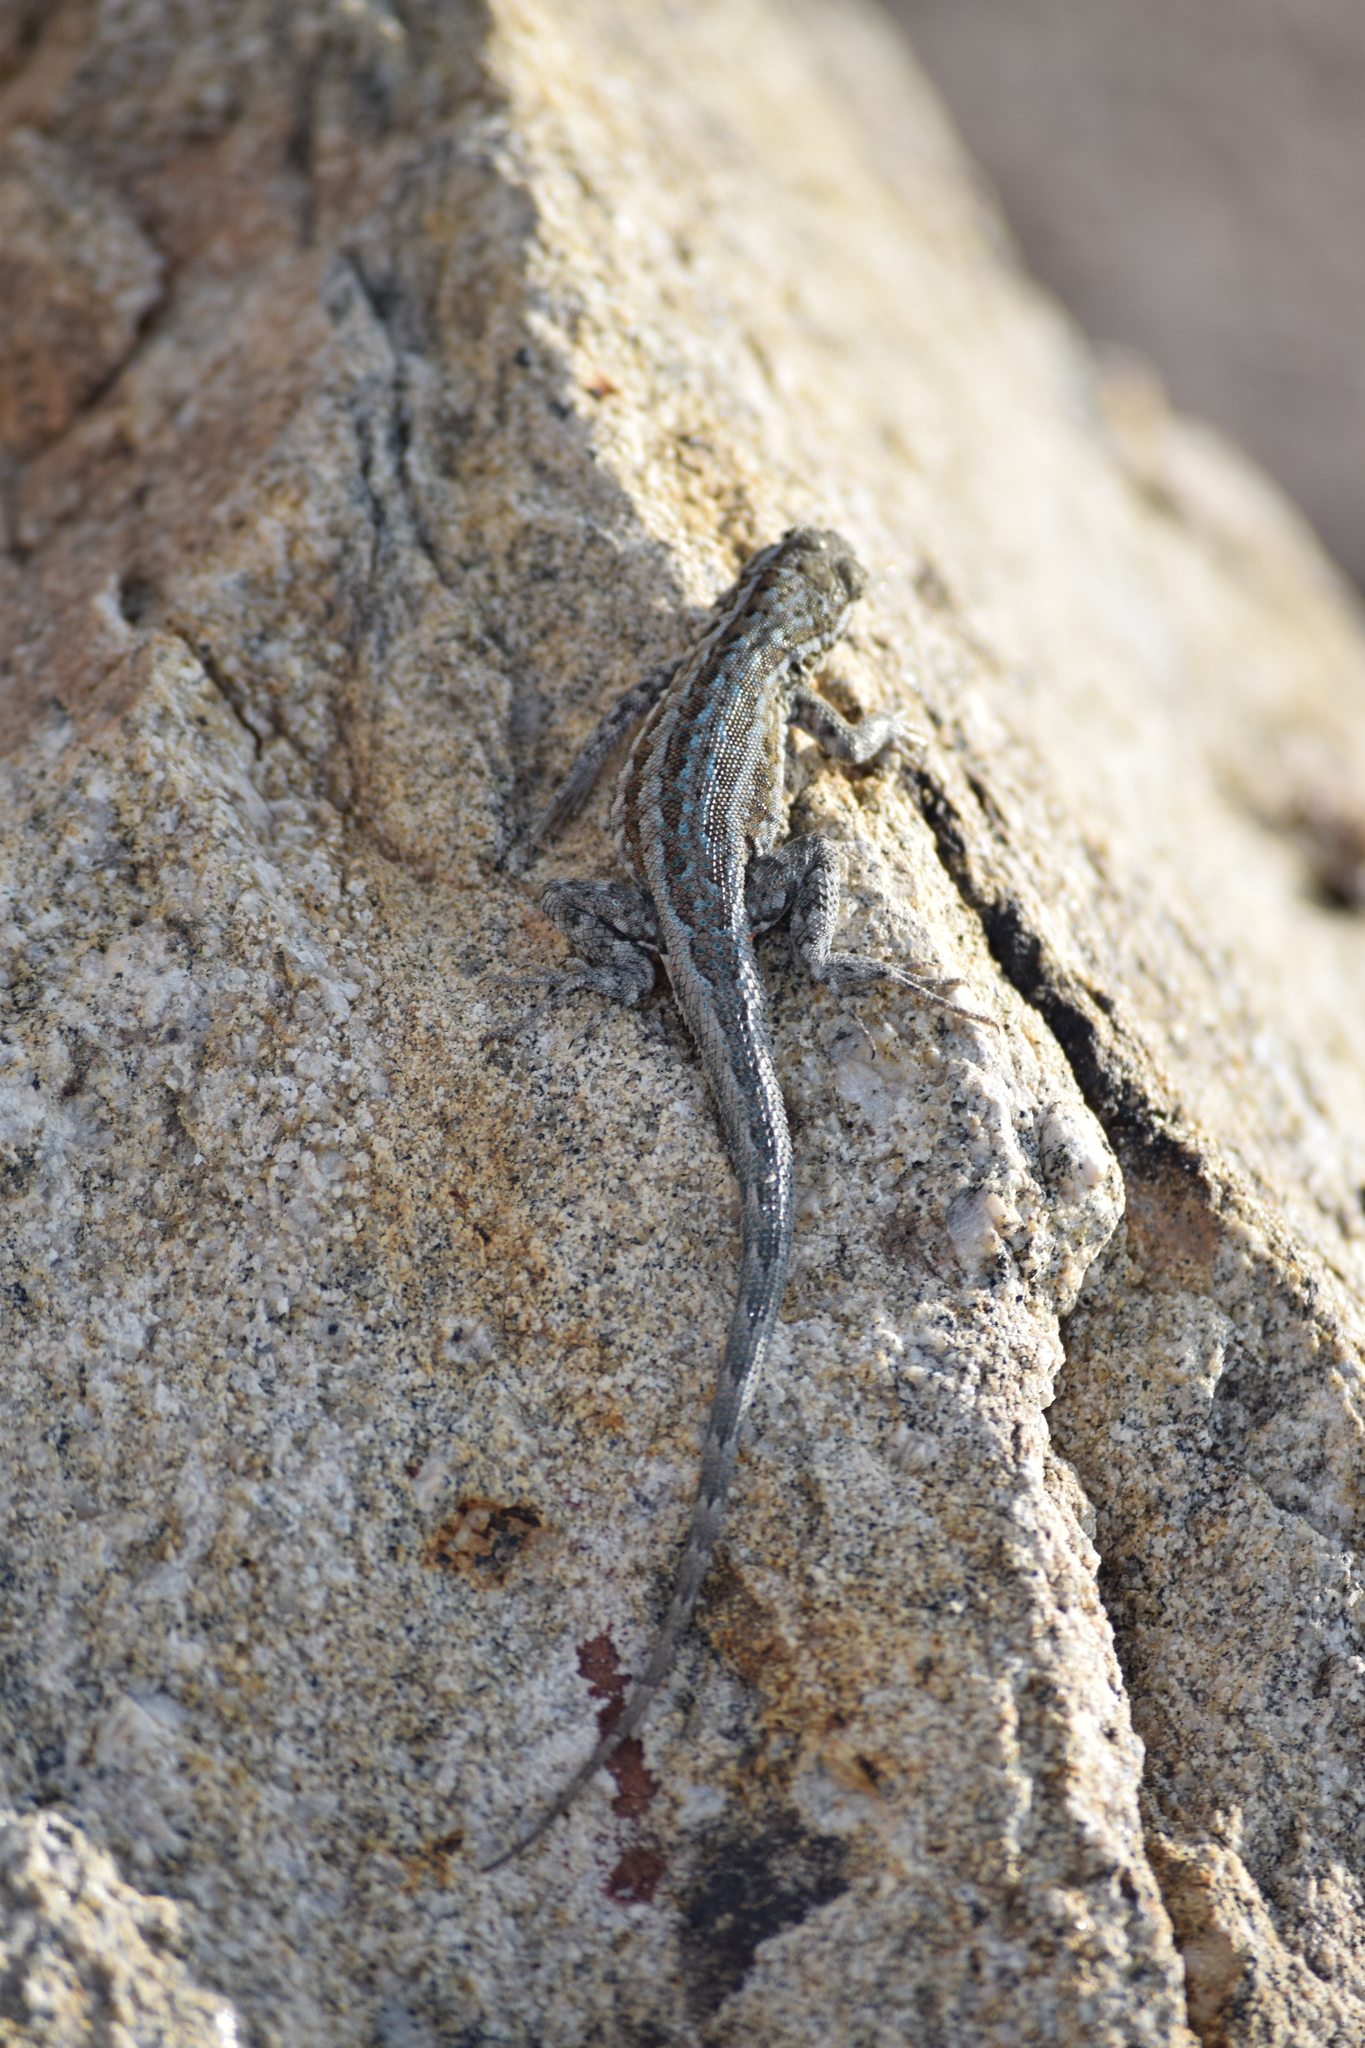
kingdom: Animalia
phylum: Chordata
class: Squamata
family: Phrynosomatidae
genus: Uta
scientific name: Uta stansburiana
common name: Side-blotched lizard
